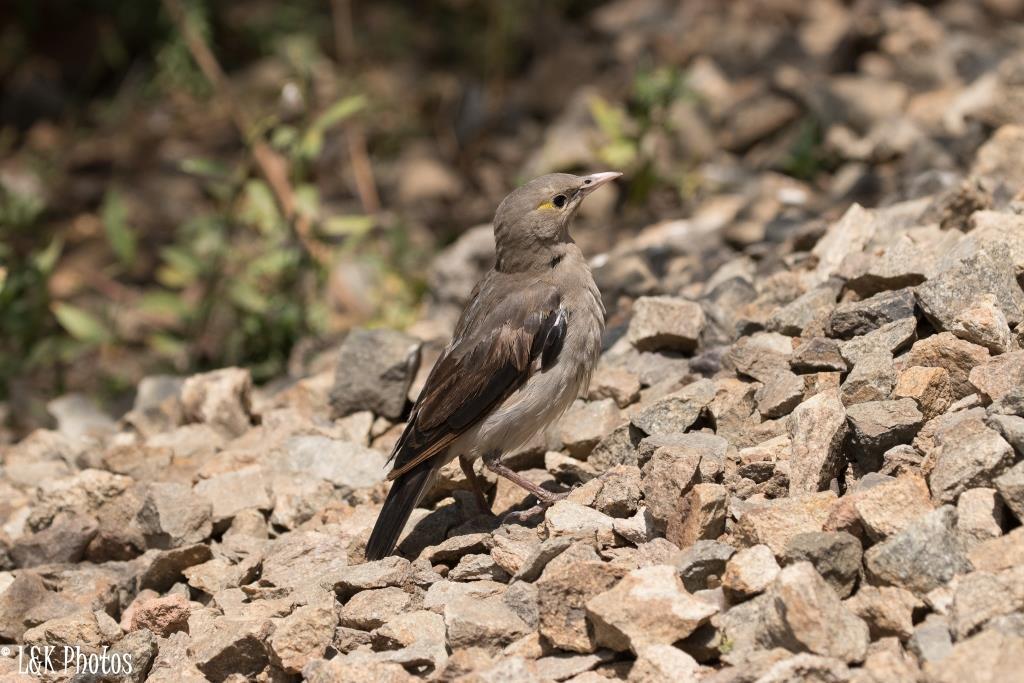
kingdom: Animalia
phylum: Chordata
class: Aves
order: Passeriformes
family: Sturnidae
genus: Creatophora
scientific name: Creatophora cinerea
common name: Wattled starling
